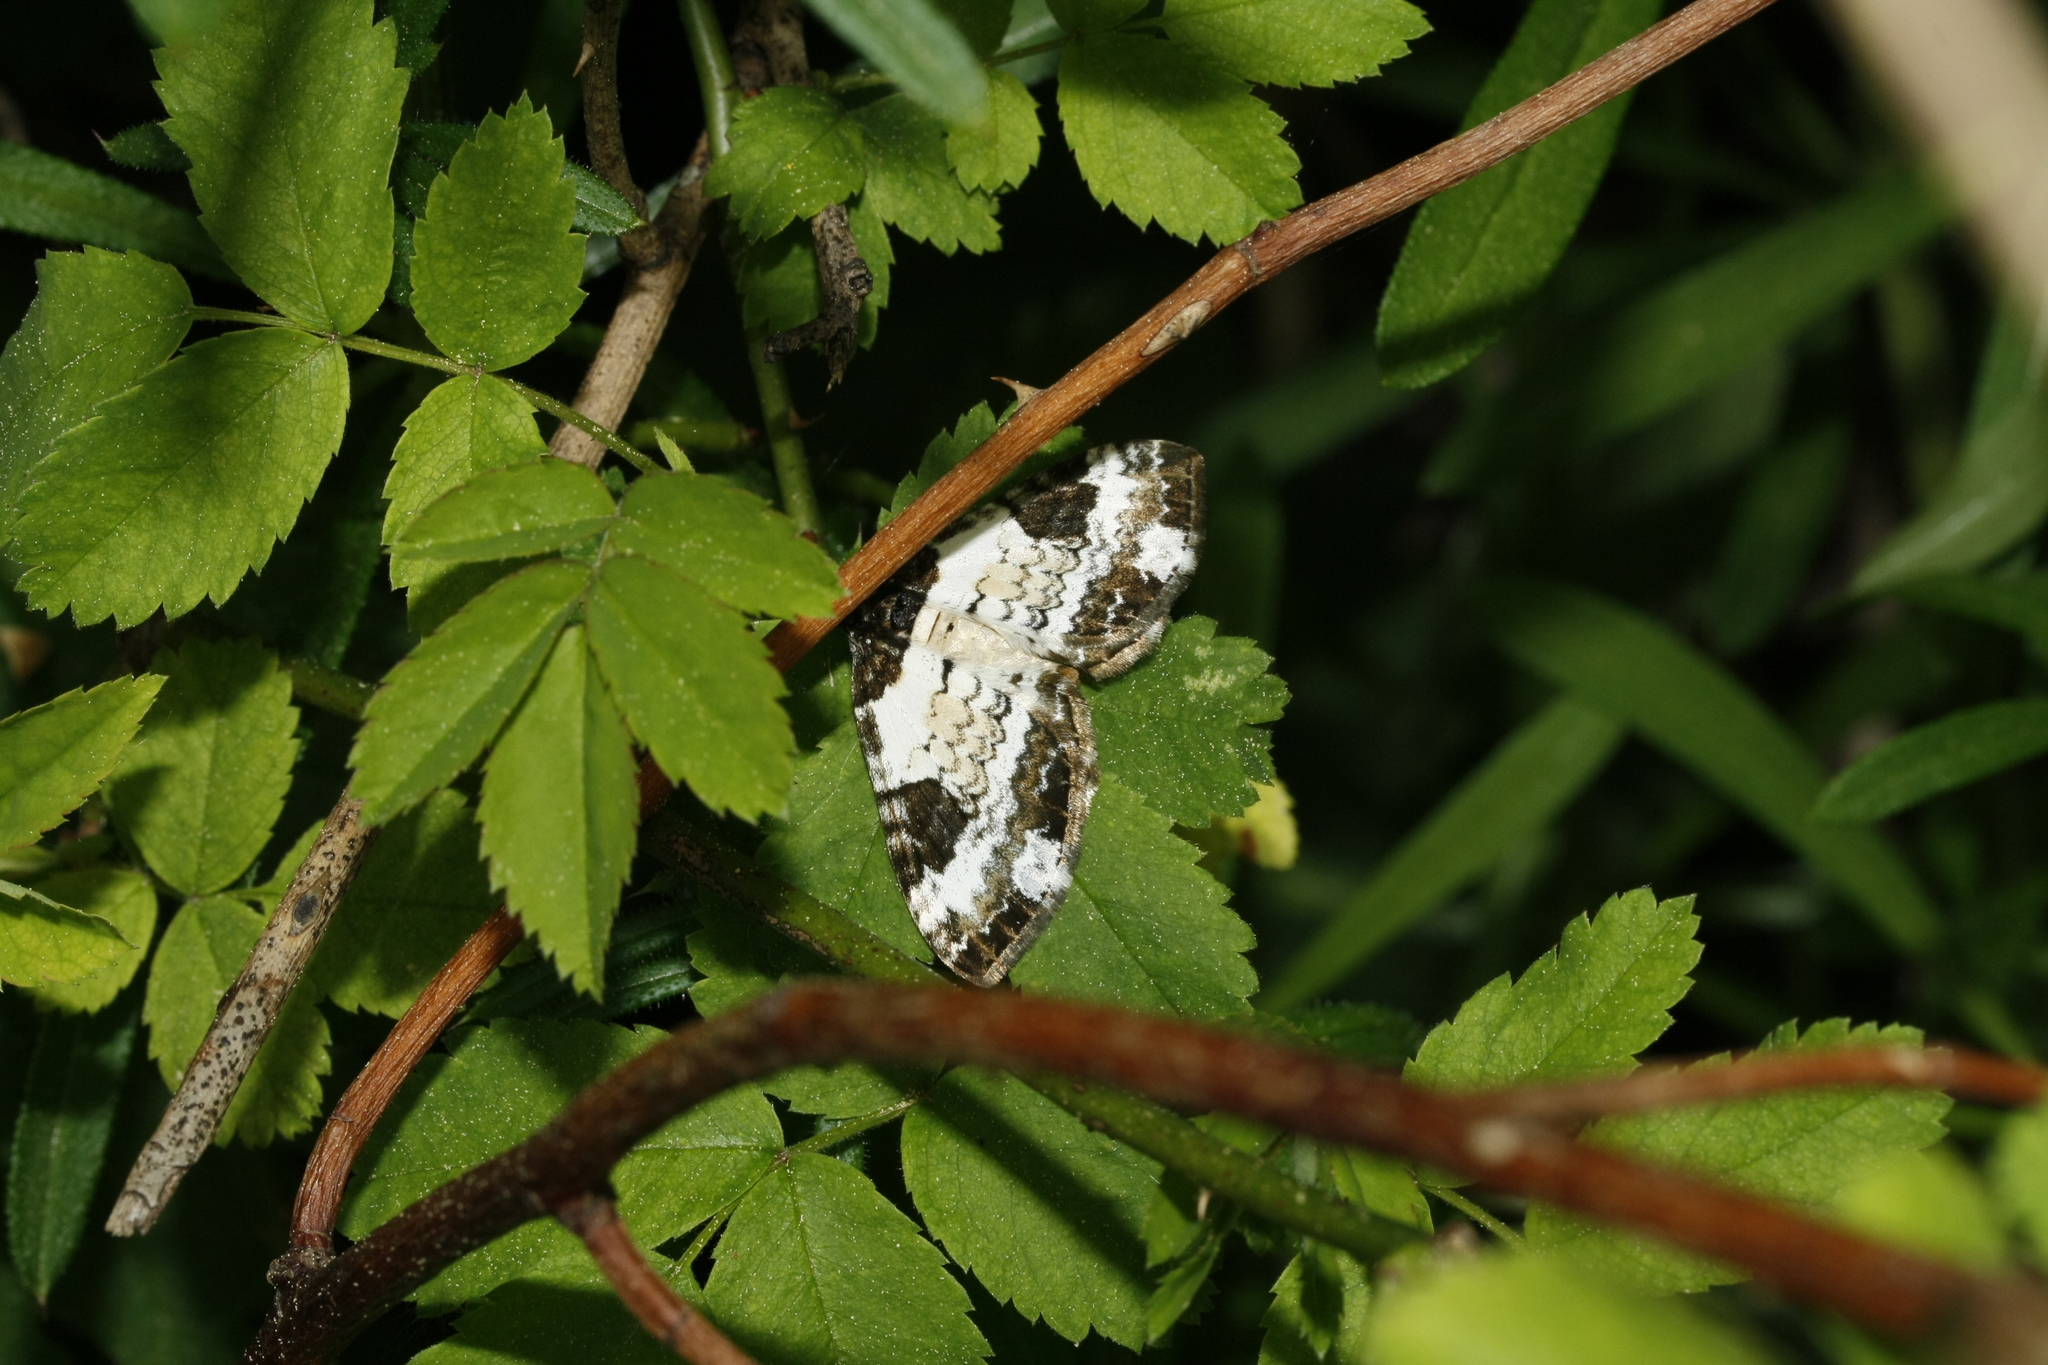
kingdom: Animalia
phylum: Arthropoda
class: Insecta
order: Lepidoptera
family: Geometridae
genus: Melanthia
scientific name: Melanthia procellata
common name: Pretty chalk carpet
